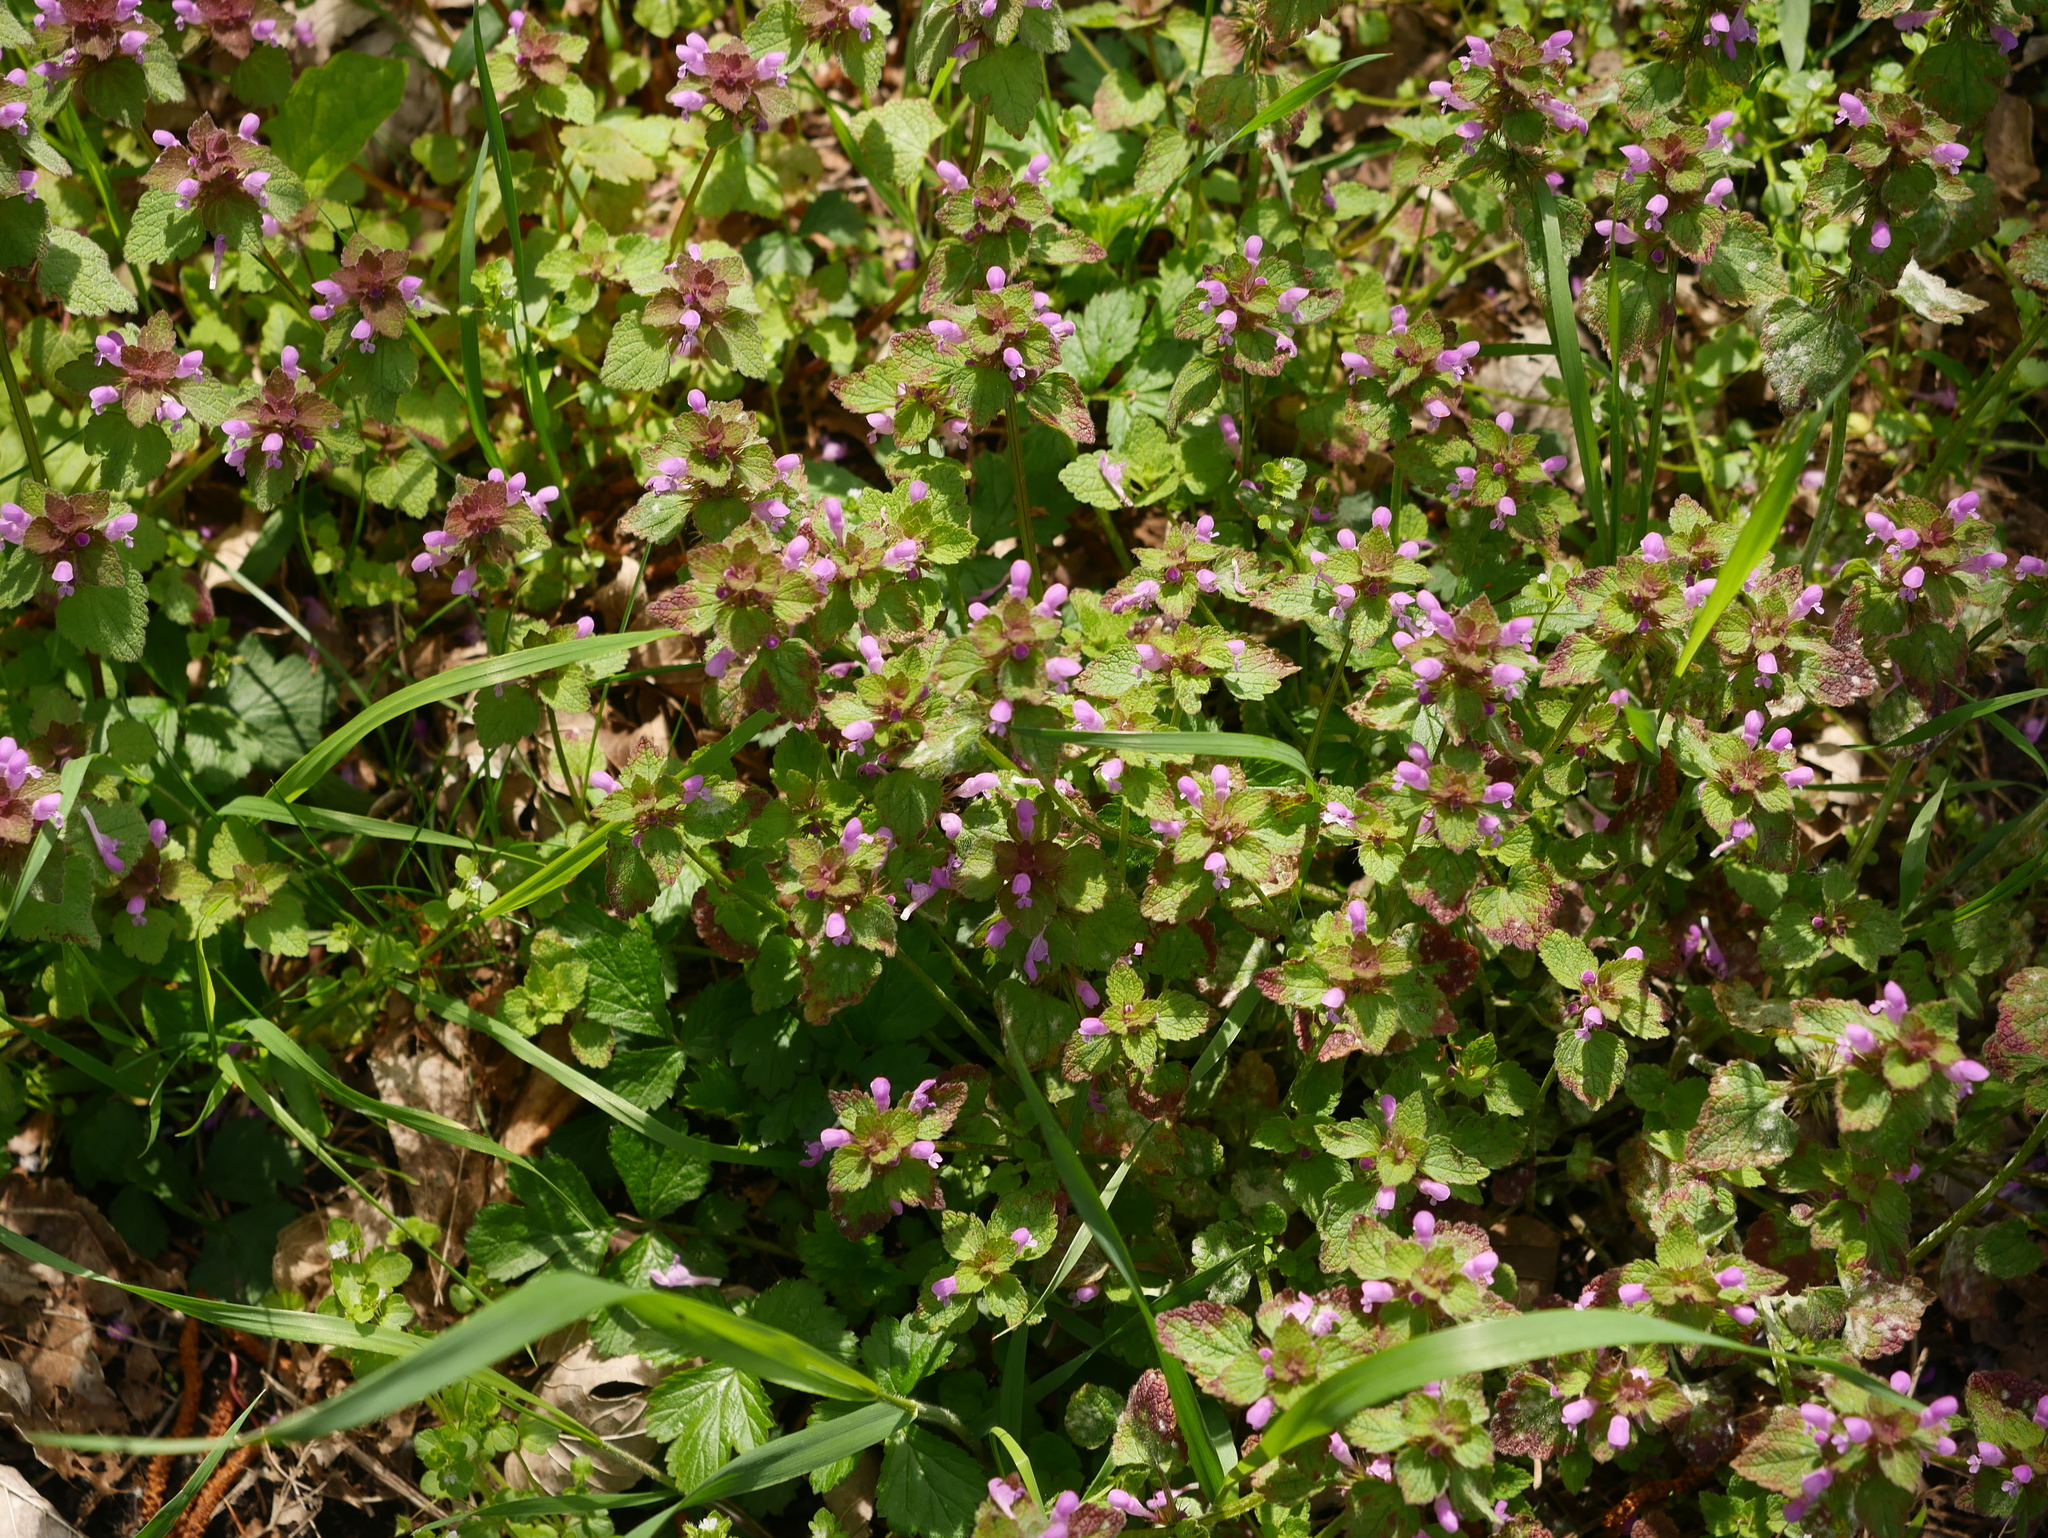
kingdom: Plantae
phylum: Tracheophyta
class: Magnoliopsida
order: Lamiales
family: Lamiaceae
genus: Lamium
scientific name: Lamium purpureum
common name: Red dead-nettle
